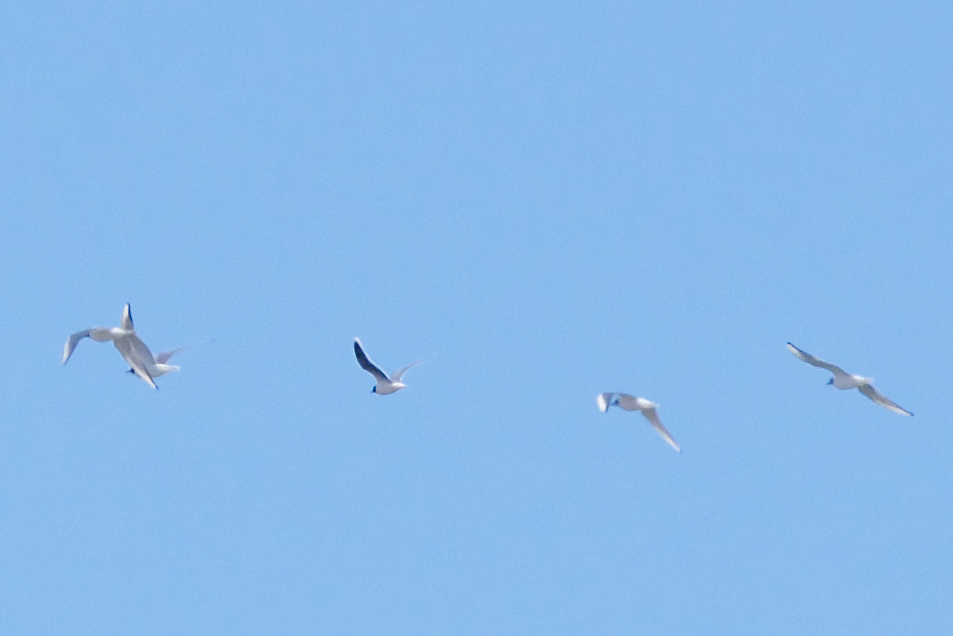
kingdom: Animalia
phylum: Chordata
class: Aves
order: Charadriiformes
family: Laridae
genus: Hydrocoloeus
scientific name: Hydrocoloeus minutus
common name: Little gull
